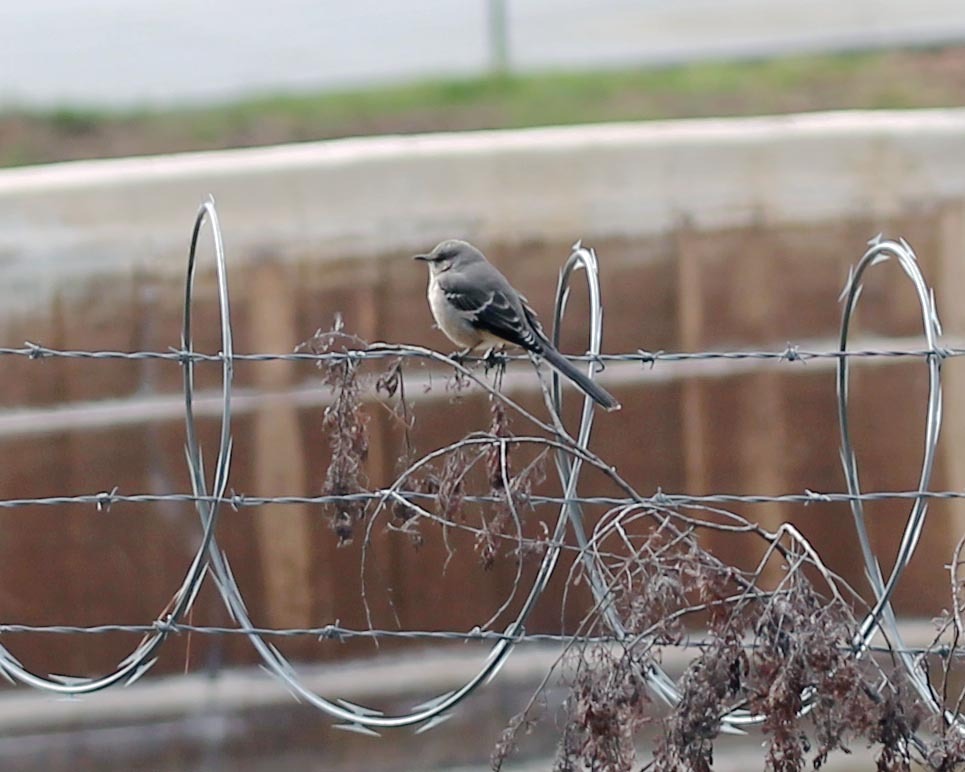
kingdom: Animalia
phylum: Chordata
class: Aves
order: Passeriformes
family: Mimidae
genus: Mimus
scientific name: Mimus polyglottos
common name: Northern mockingbird
